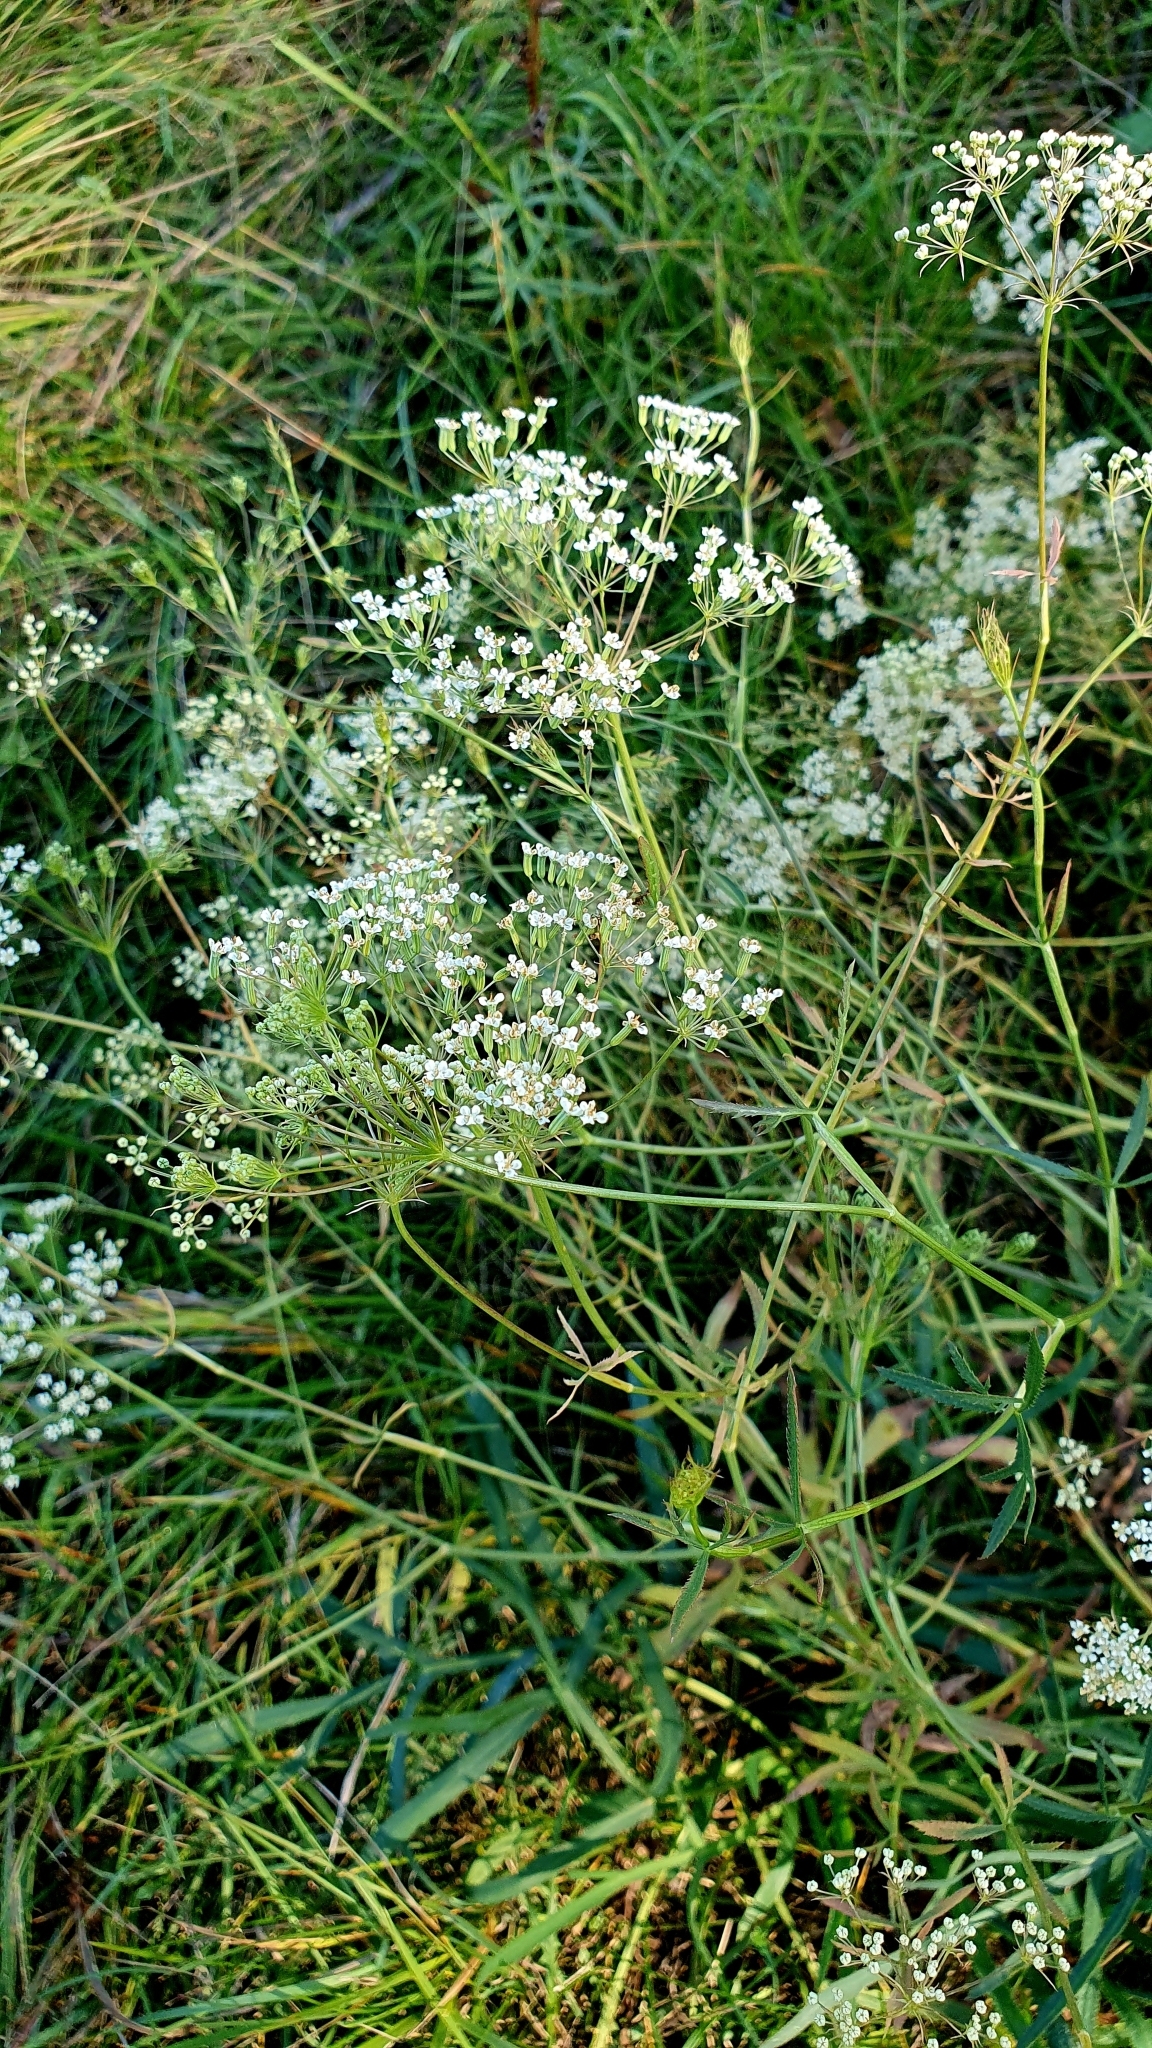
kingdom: Plantae
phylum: Tracheophyta
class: Magnoliopsida
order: Apiales
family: Apiaceae
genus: Falcaria
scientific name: Falcaria vulgaris
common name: Longleaf
